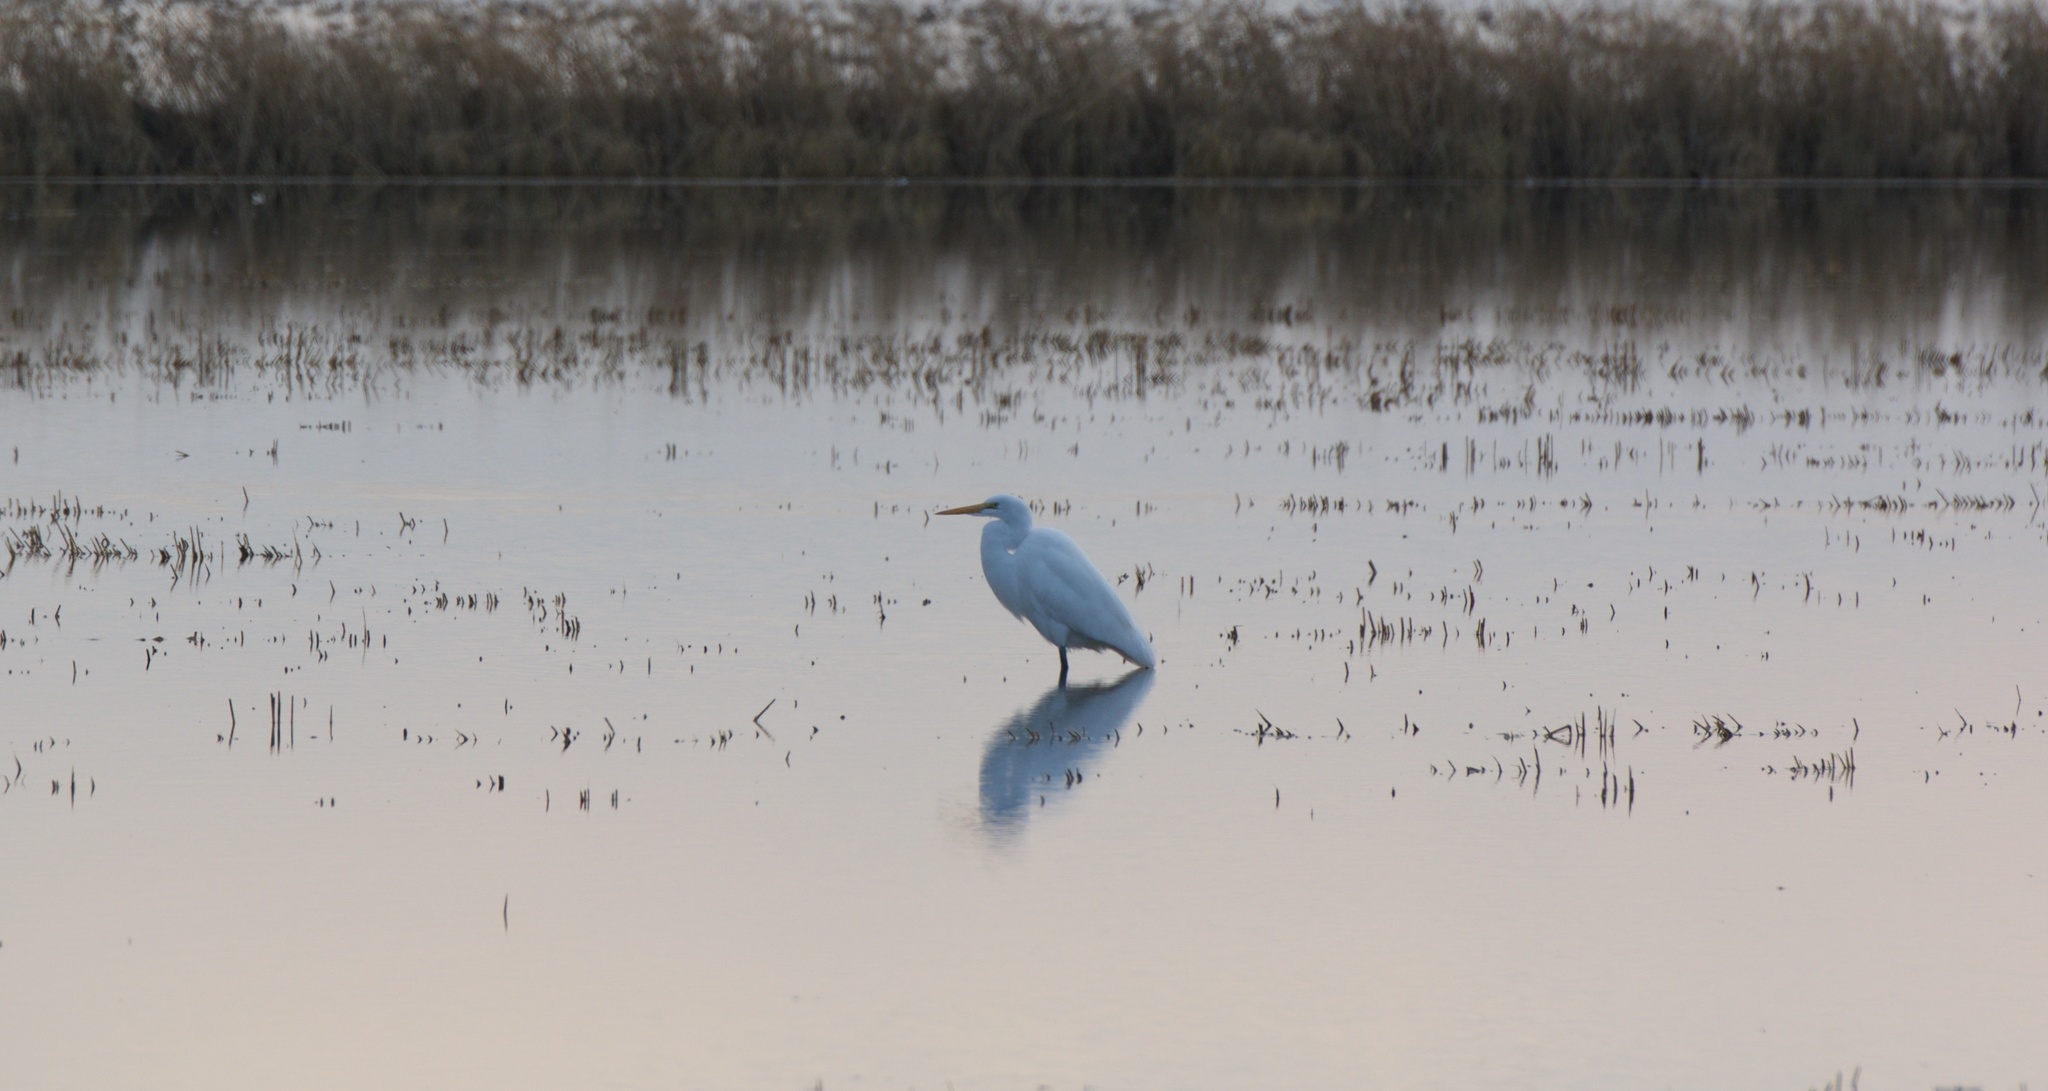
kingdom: Animalia
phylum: Chordata
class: Aves
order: Pelecaniformes
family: Ardeidae
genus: Ardea
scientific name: Ardea alba
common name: Great egret
